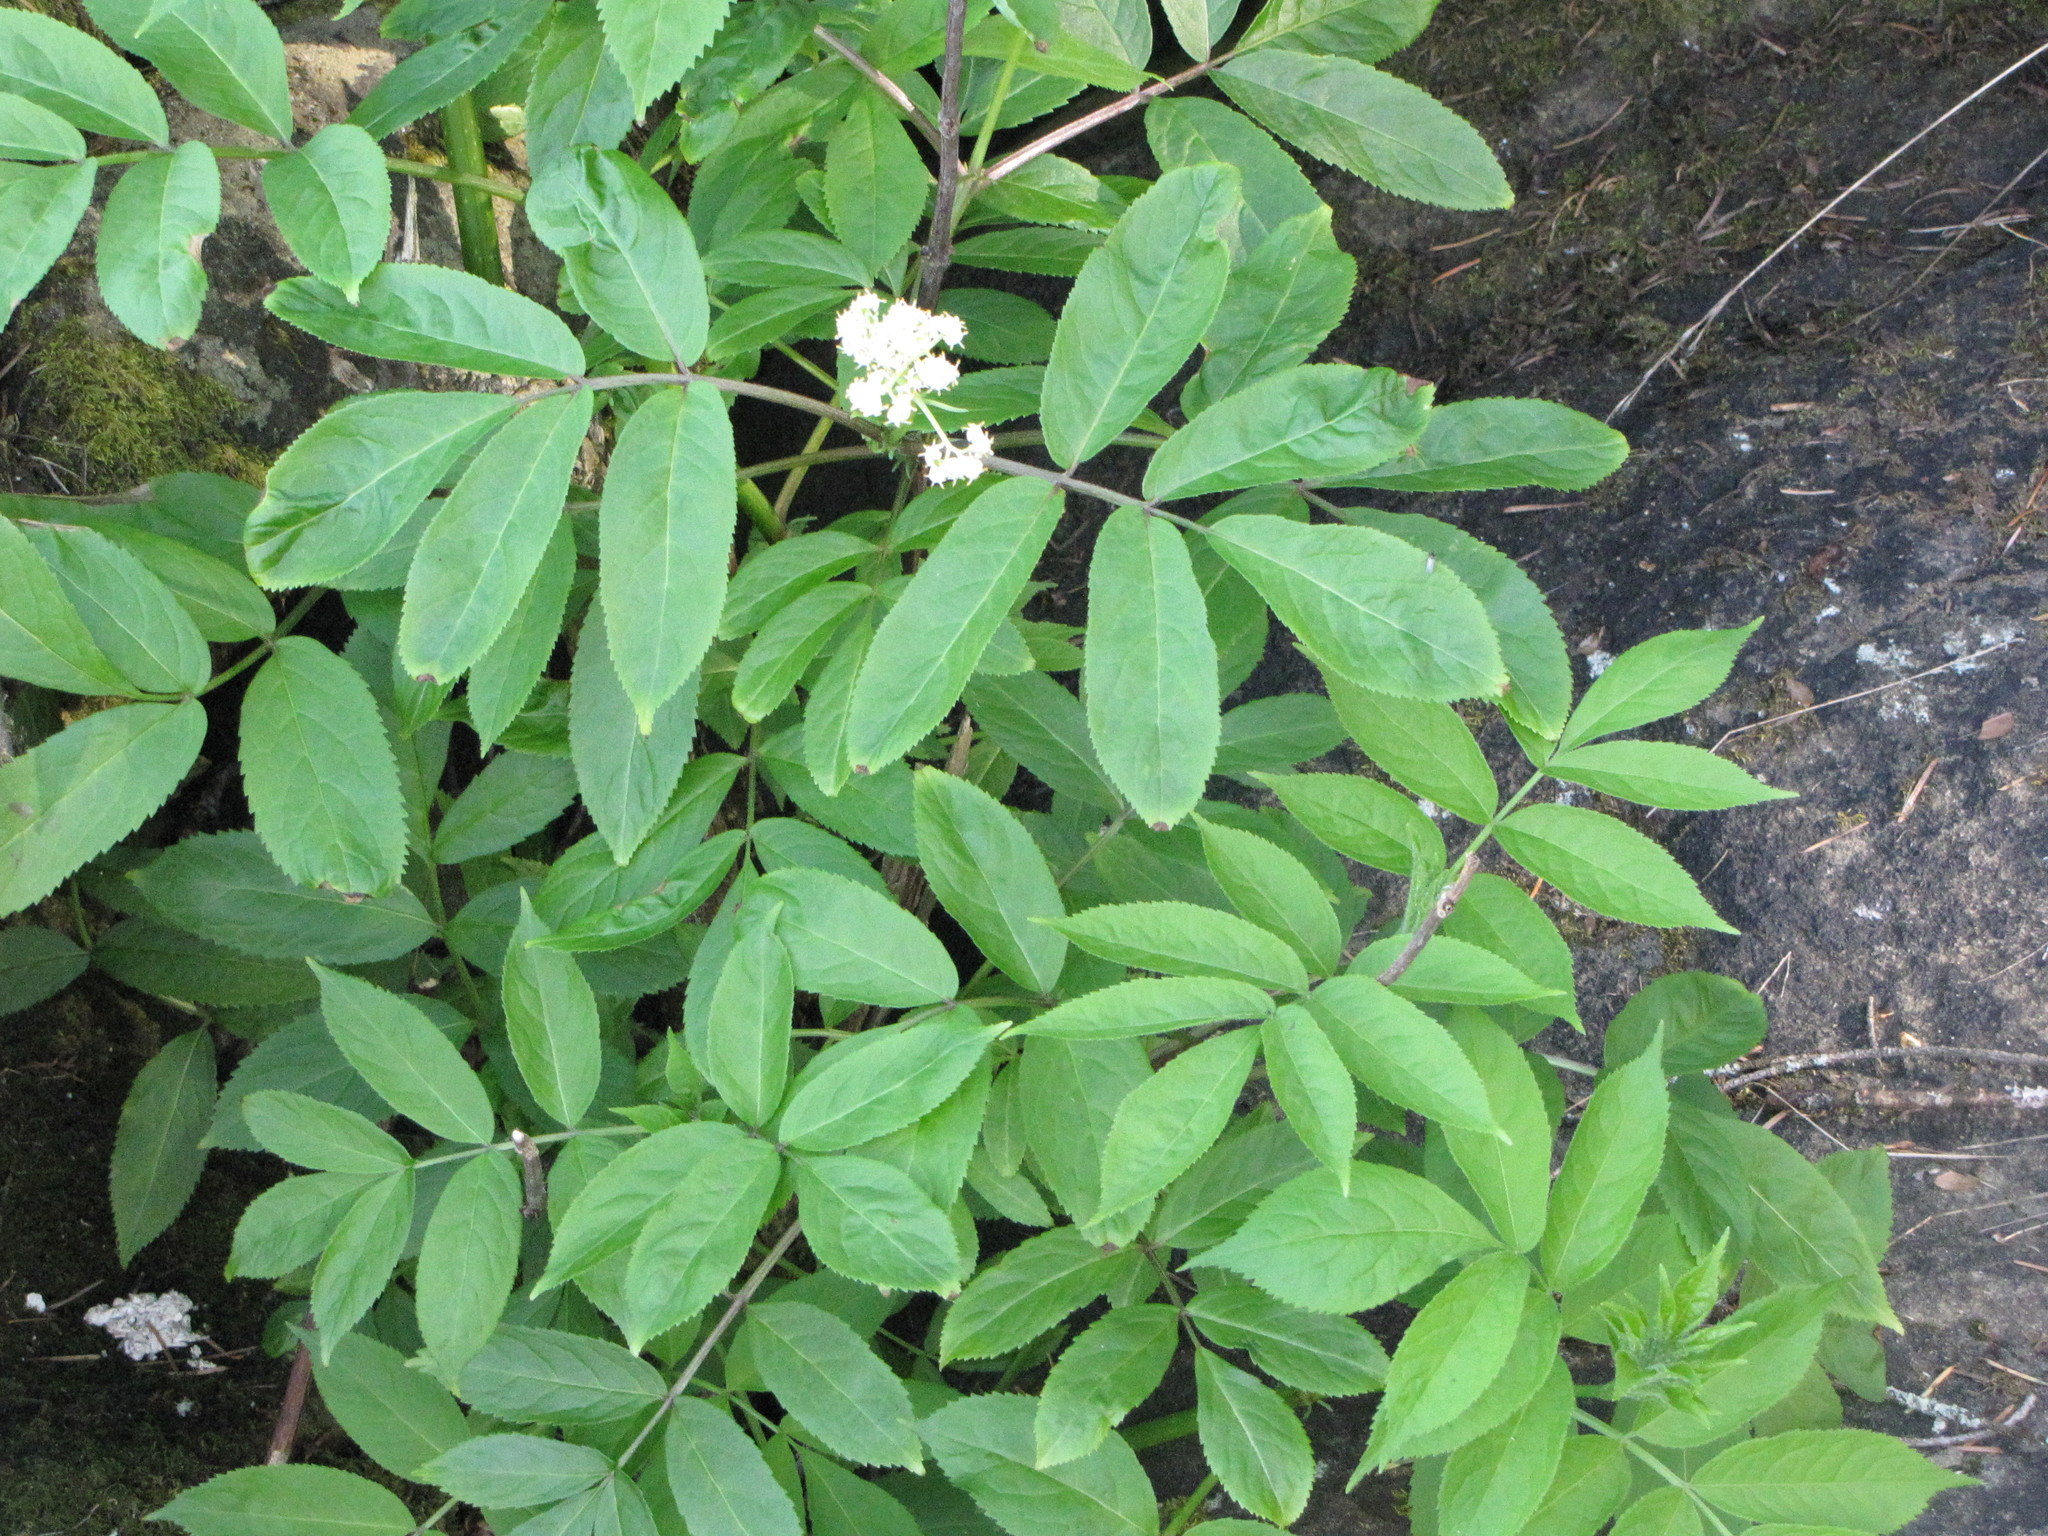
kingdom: Plantae
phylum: Tracheophyta
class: Magnoliopsida
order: Dipsacales
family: Viburnaceae
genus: Sambucus
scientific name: Sambucus racemosa
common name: Red-berried elder
